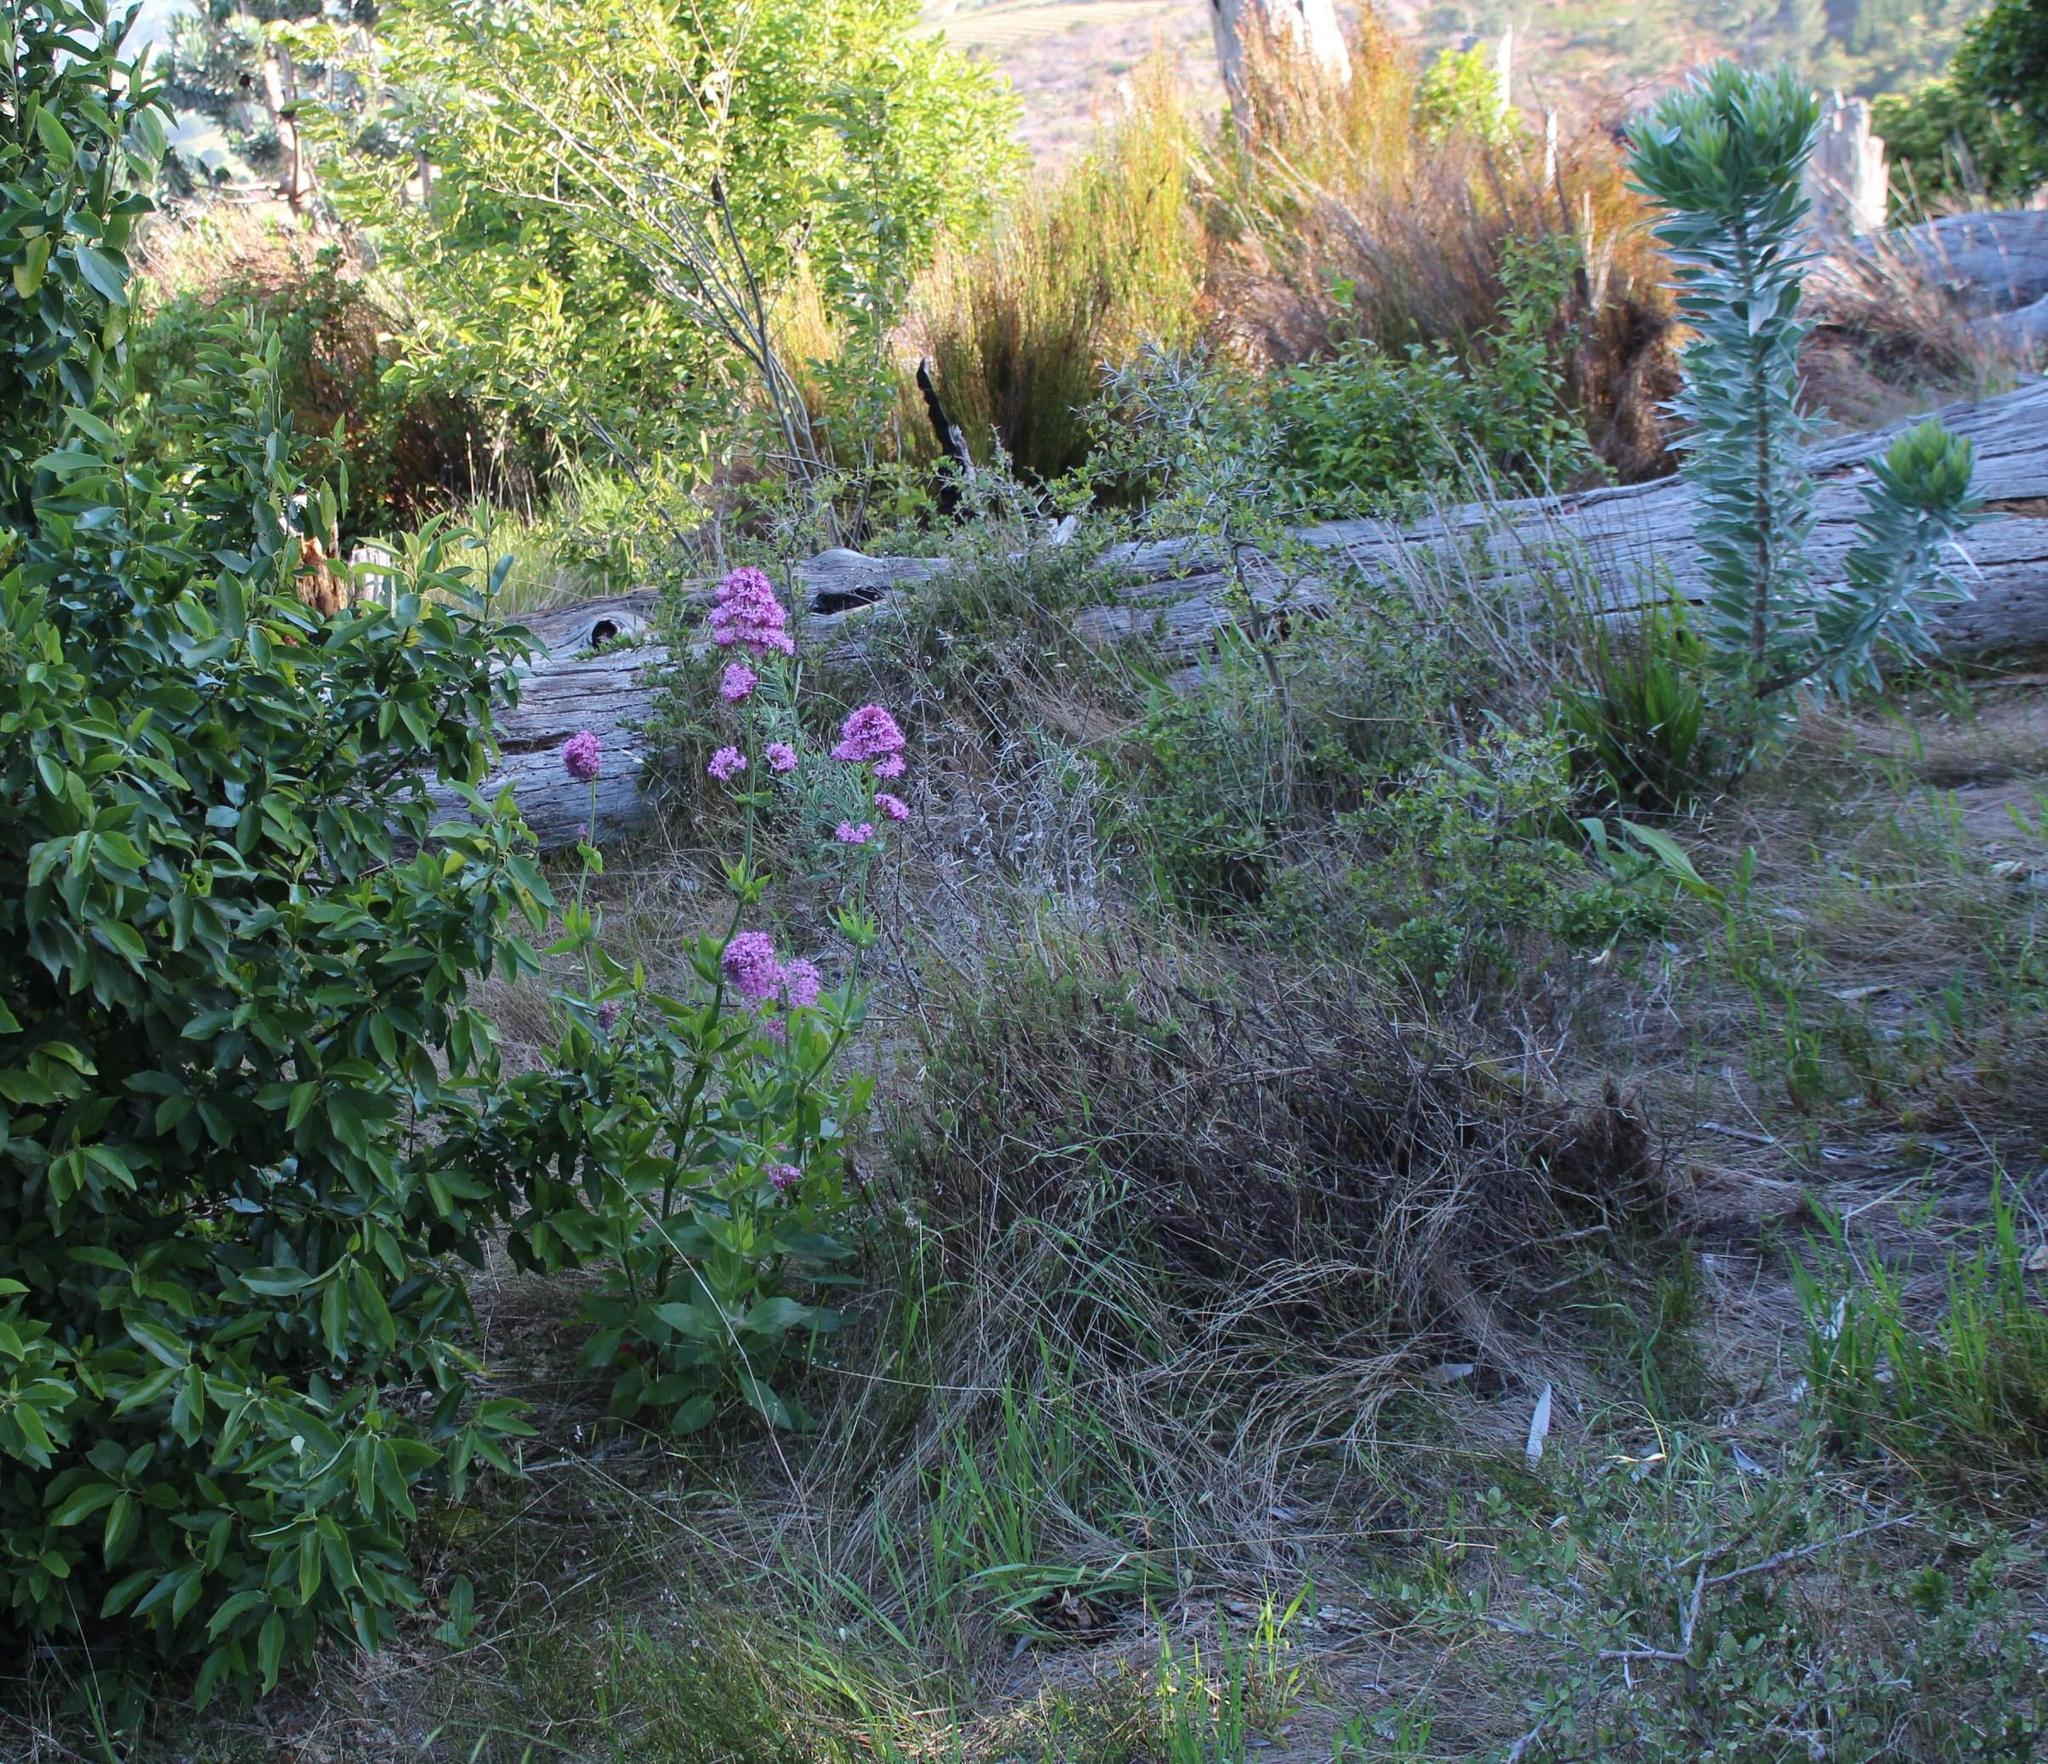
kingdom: Plantae
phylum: Tracheophyta
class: Magnoliopsida
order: Dipsacales
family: Caprifoliaceae
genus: Centranthus
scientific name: Centranthus ruber
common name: Red valerian
